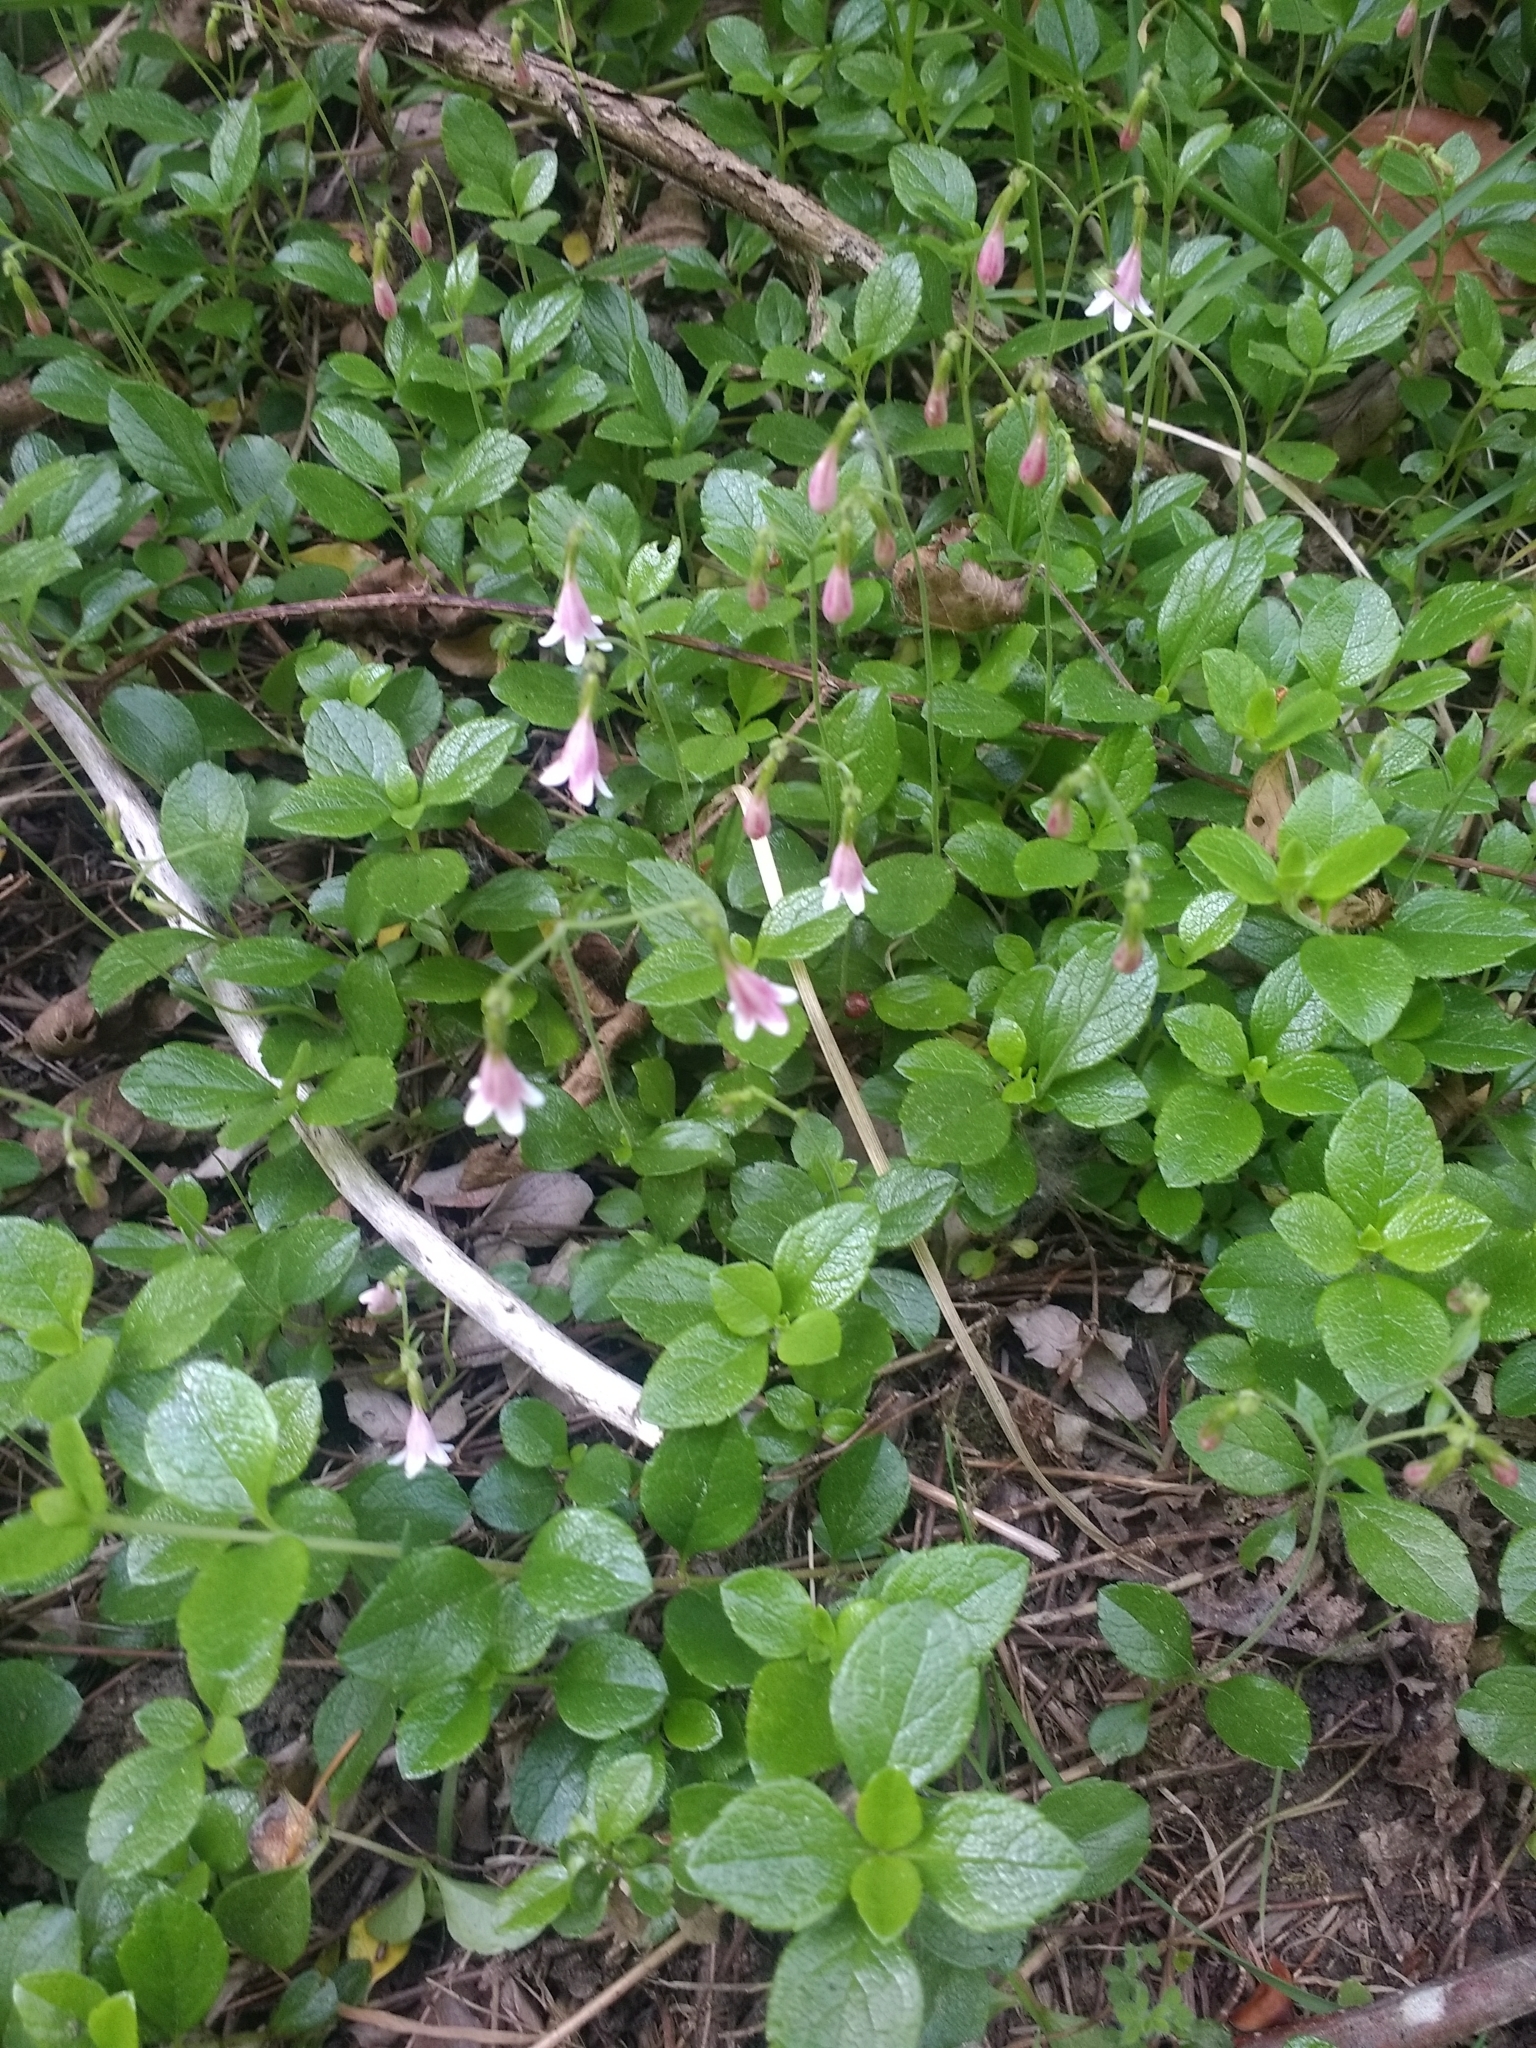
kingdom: Plantae
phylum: Tracheophyta
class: Magnoliopsida
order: Dipsacales
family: Caprifoliaceae
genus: Linnaea
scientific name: Linnaea borealis
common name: Twinflower
